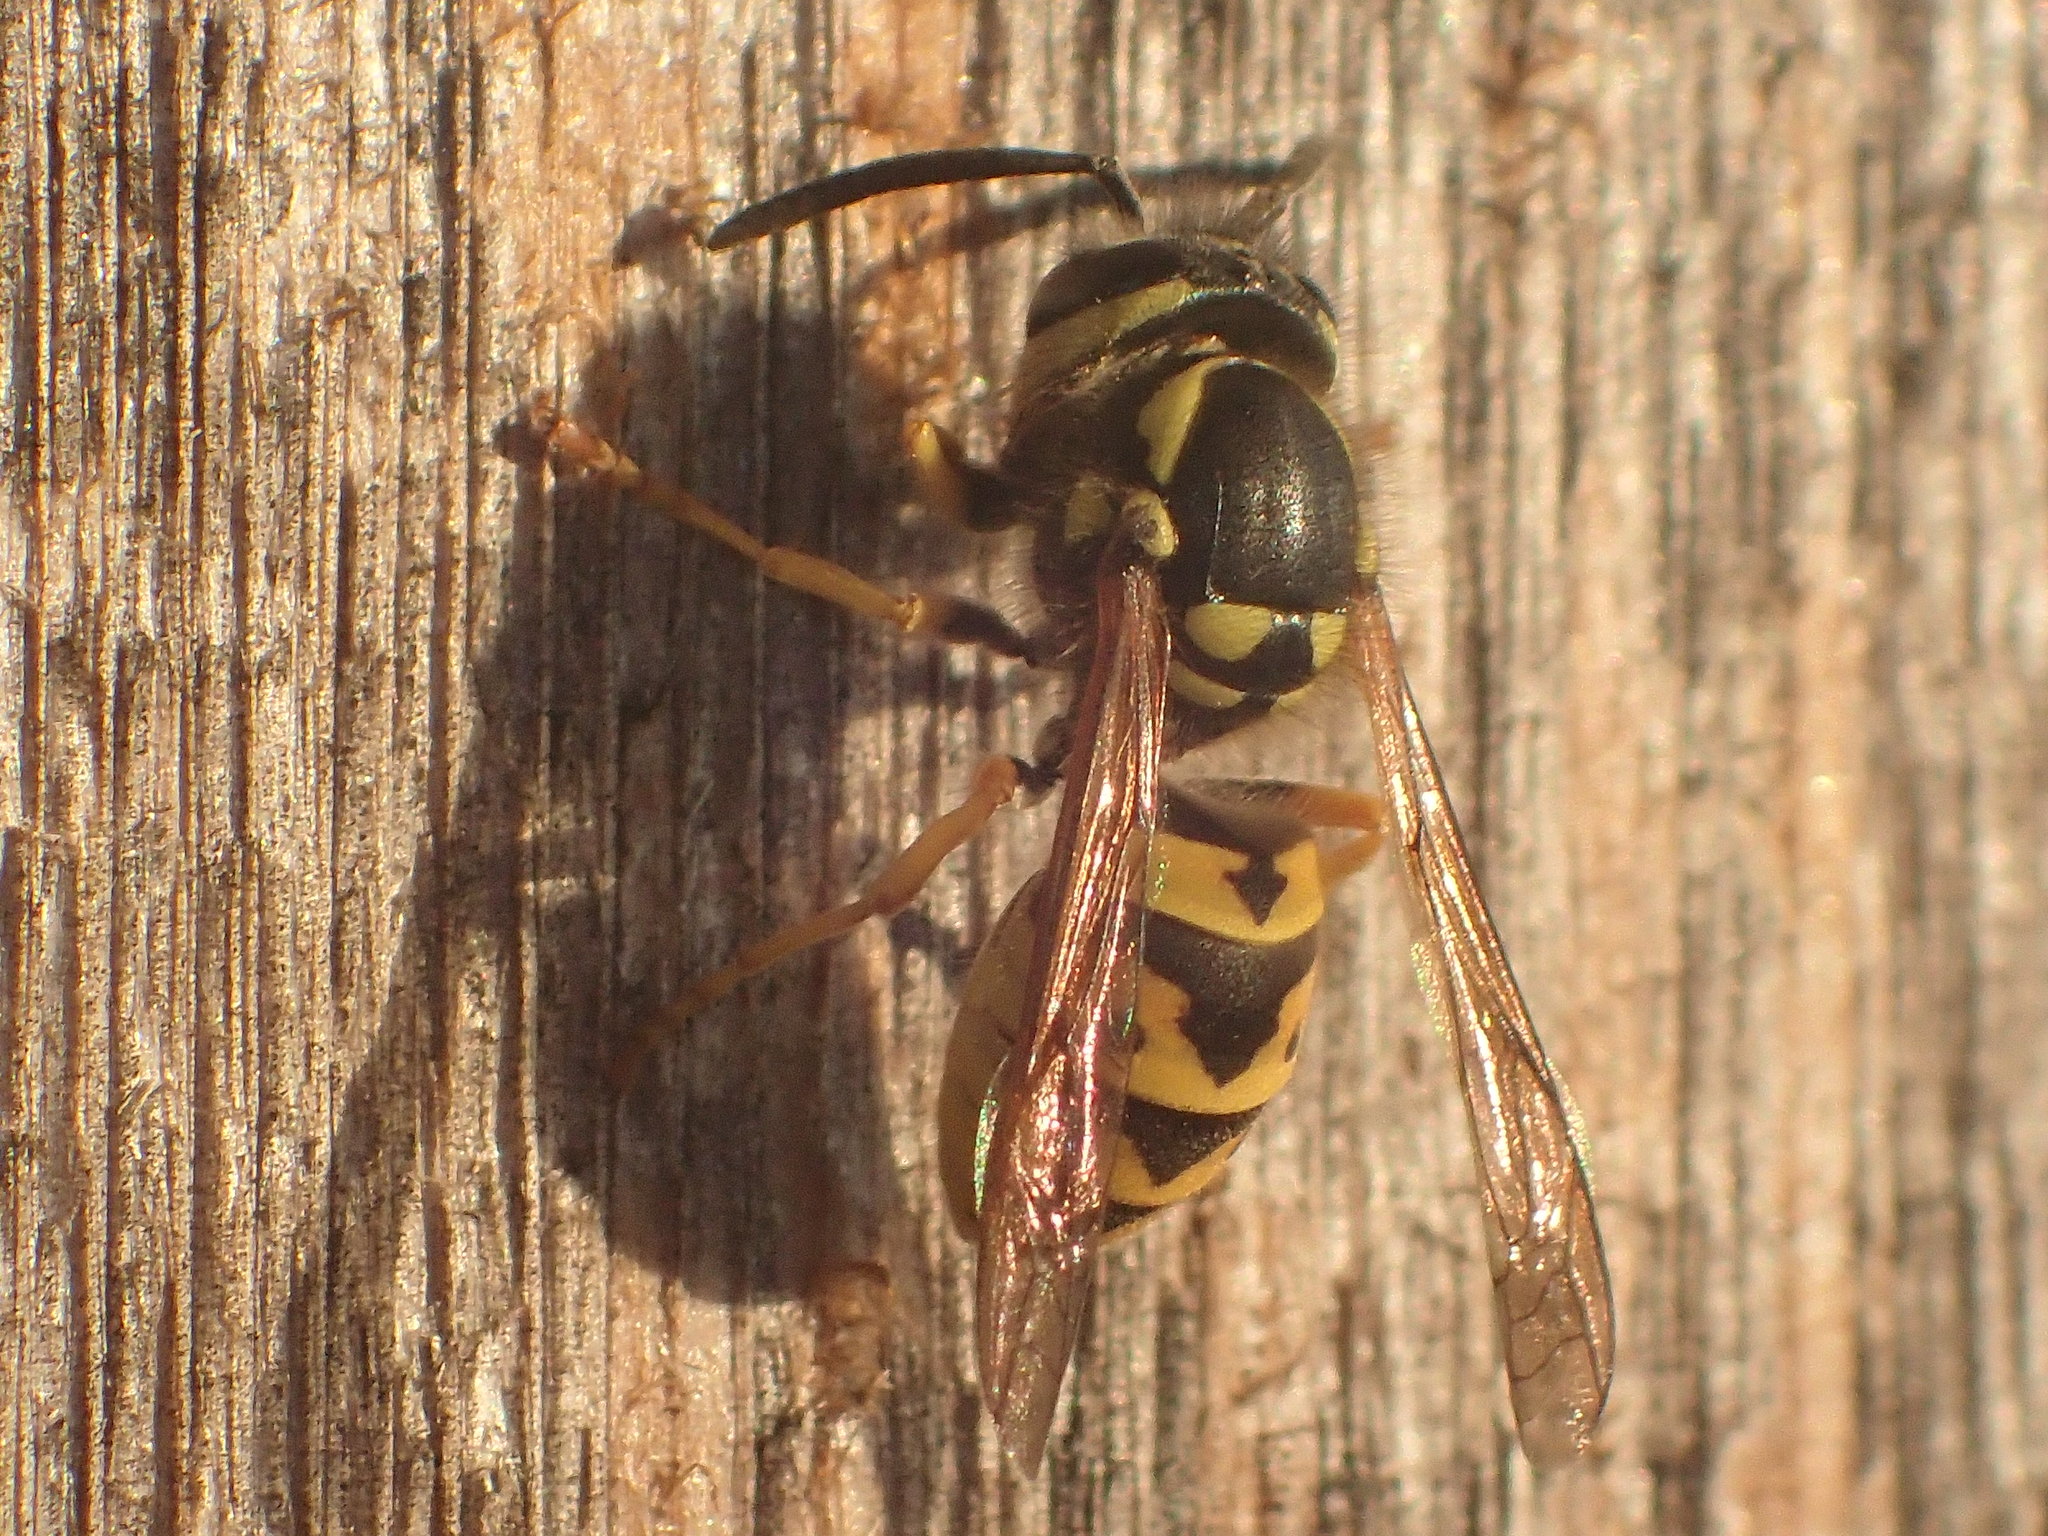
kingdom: Animalia
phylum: Arthropoda
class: Insecta
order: Hymenoptera
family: Vespidae
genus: Vespula
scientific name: Vespula germanica
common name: German wasp
